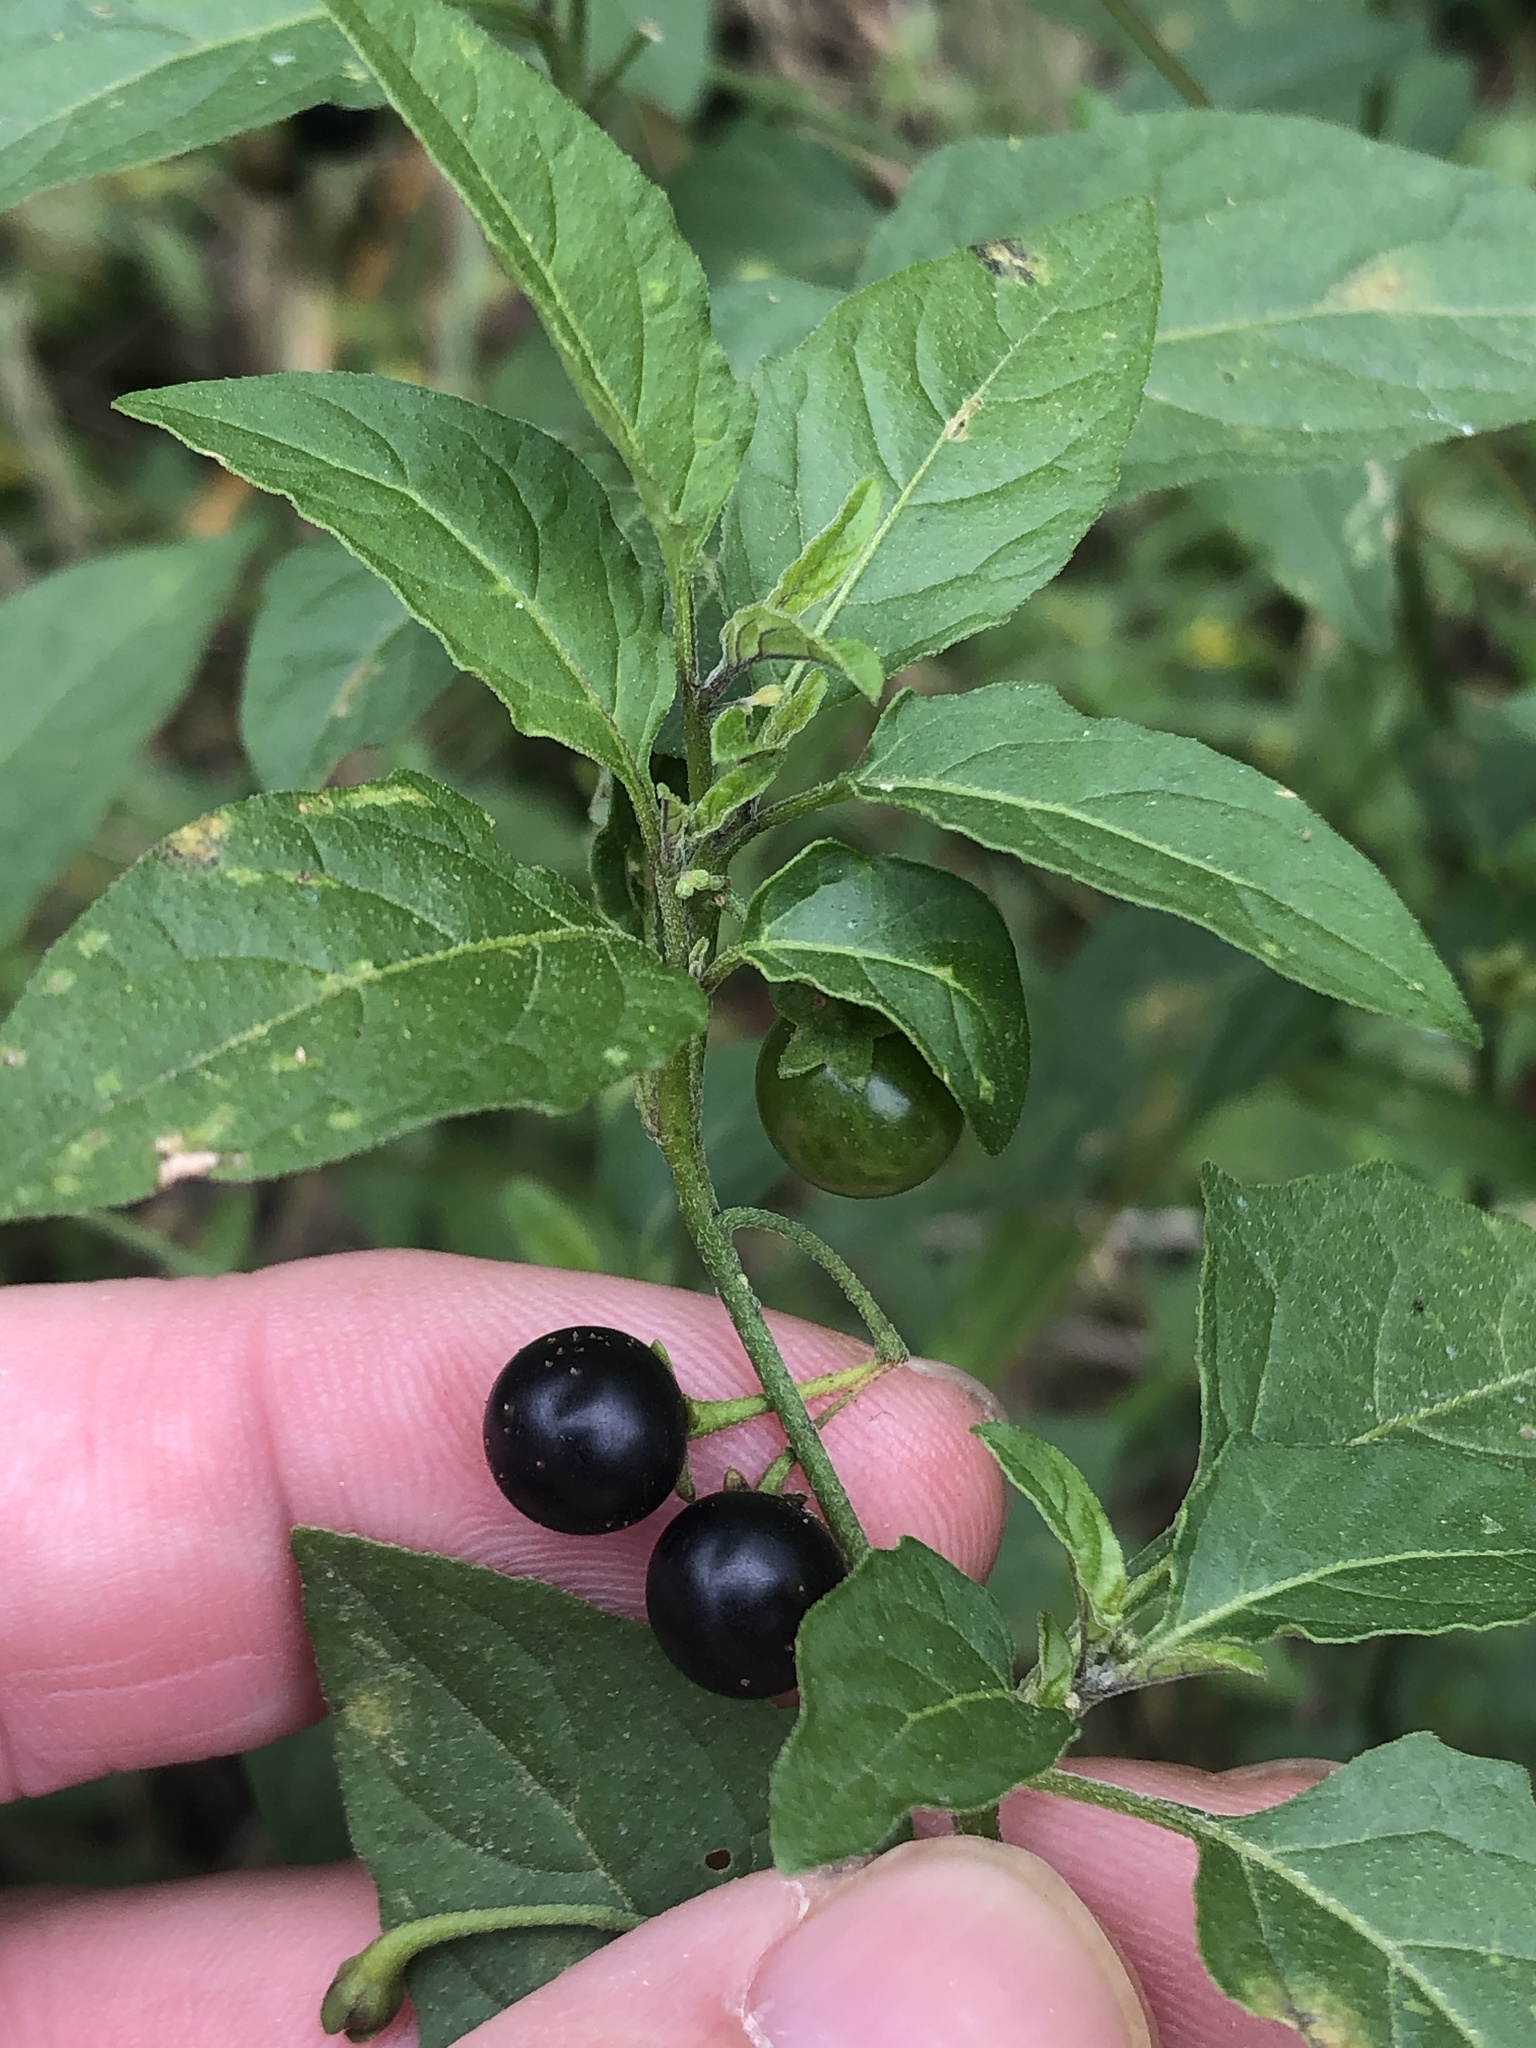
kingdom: Plantae
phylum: Tracheophyta
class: Magnoliopsida
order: Solanales
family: Solanaceae
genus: Solanum
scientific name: Solanum emulans
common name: Eastern black nightshade
